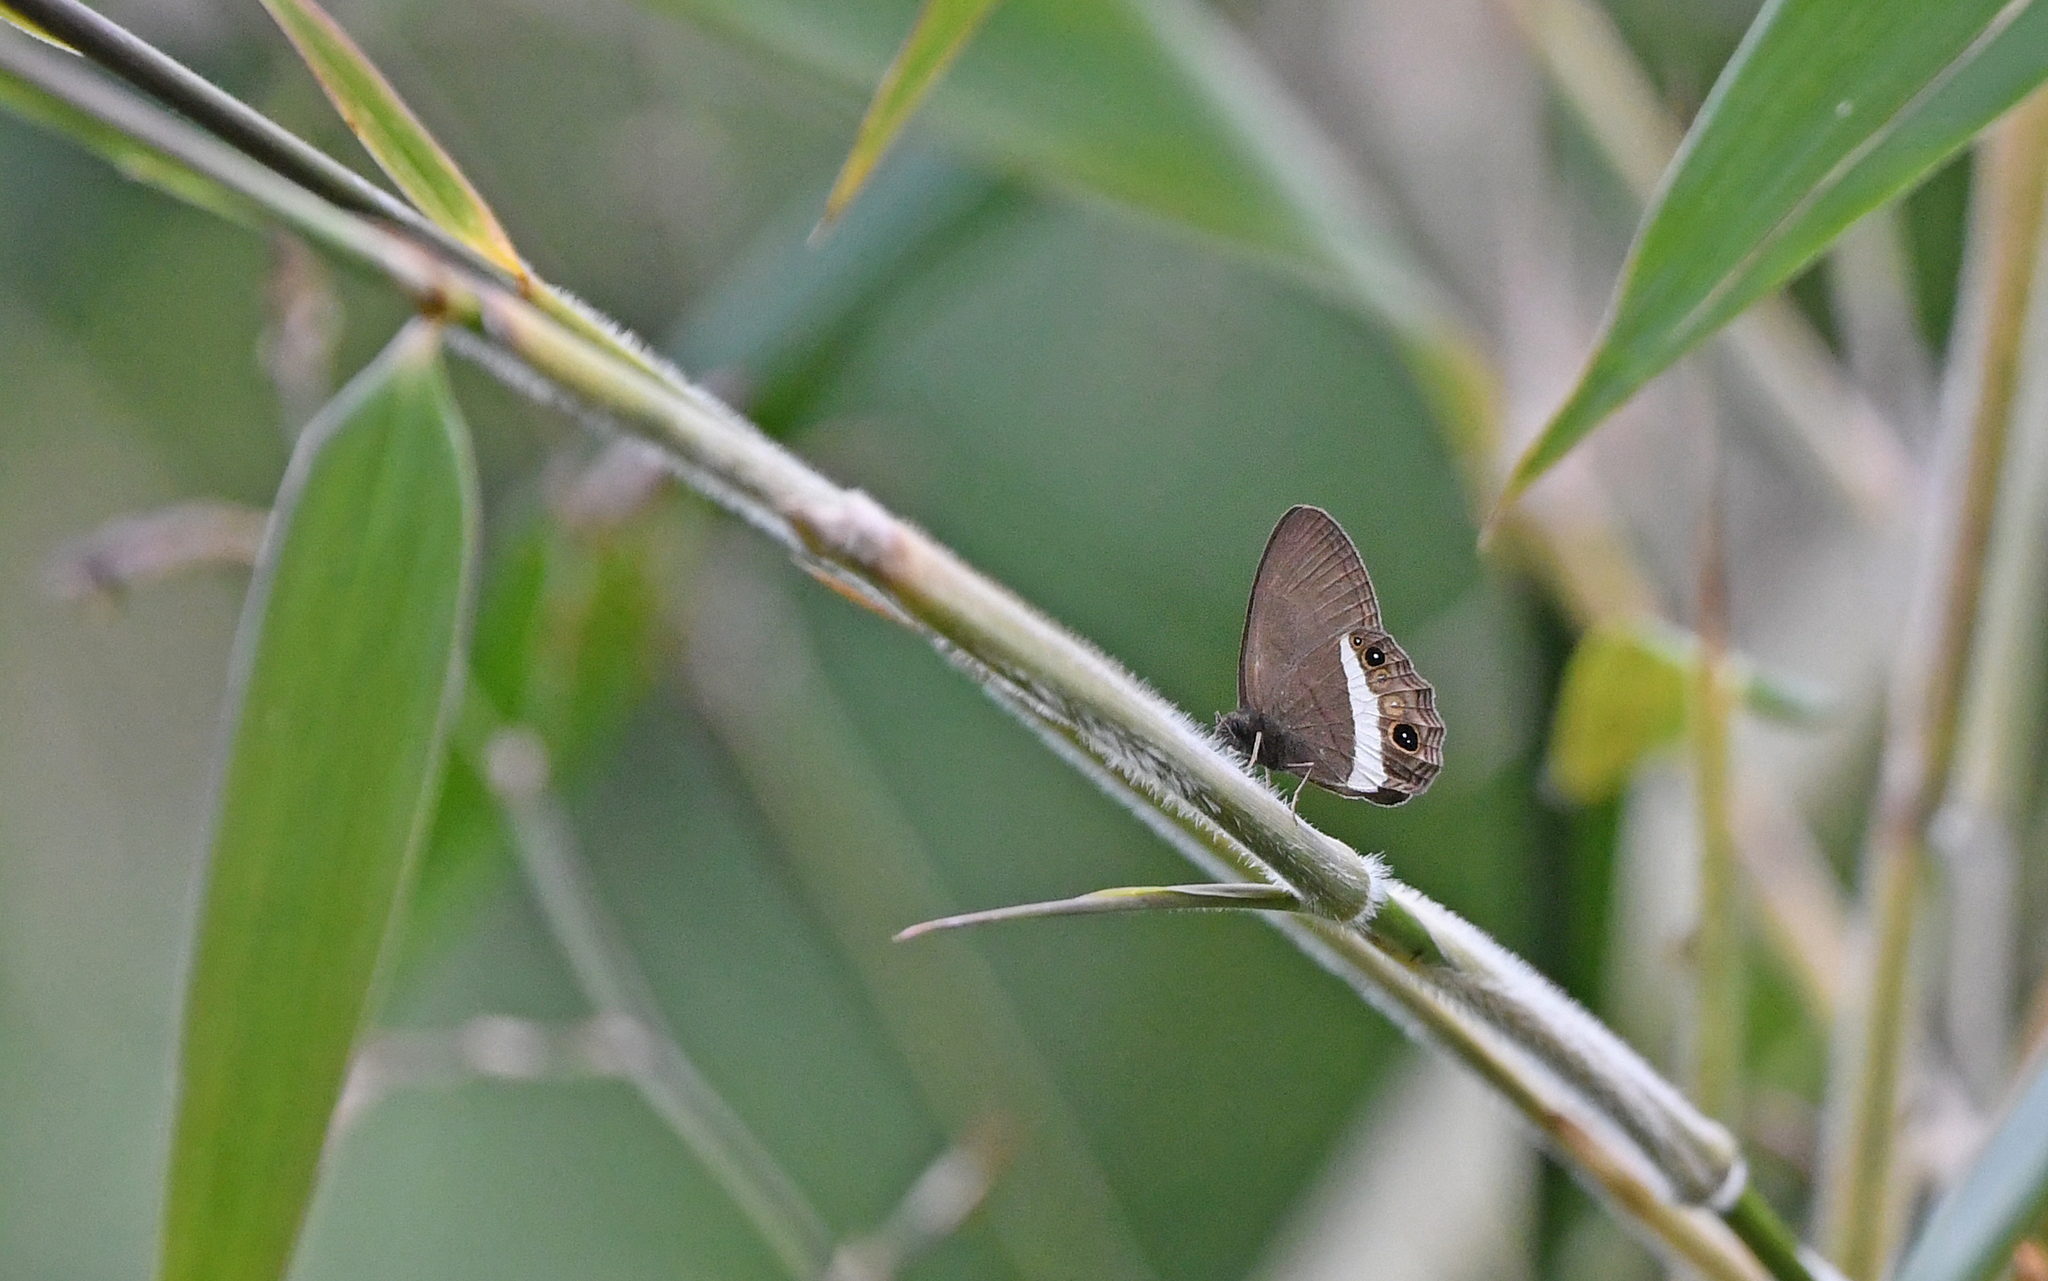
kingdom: Animalia
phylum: Arthropoda
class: Insecta
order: Lepidoptera
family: Nymphalidae
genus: Splendeuptychia
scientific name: Splendeuptychia ashna
